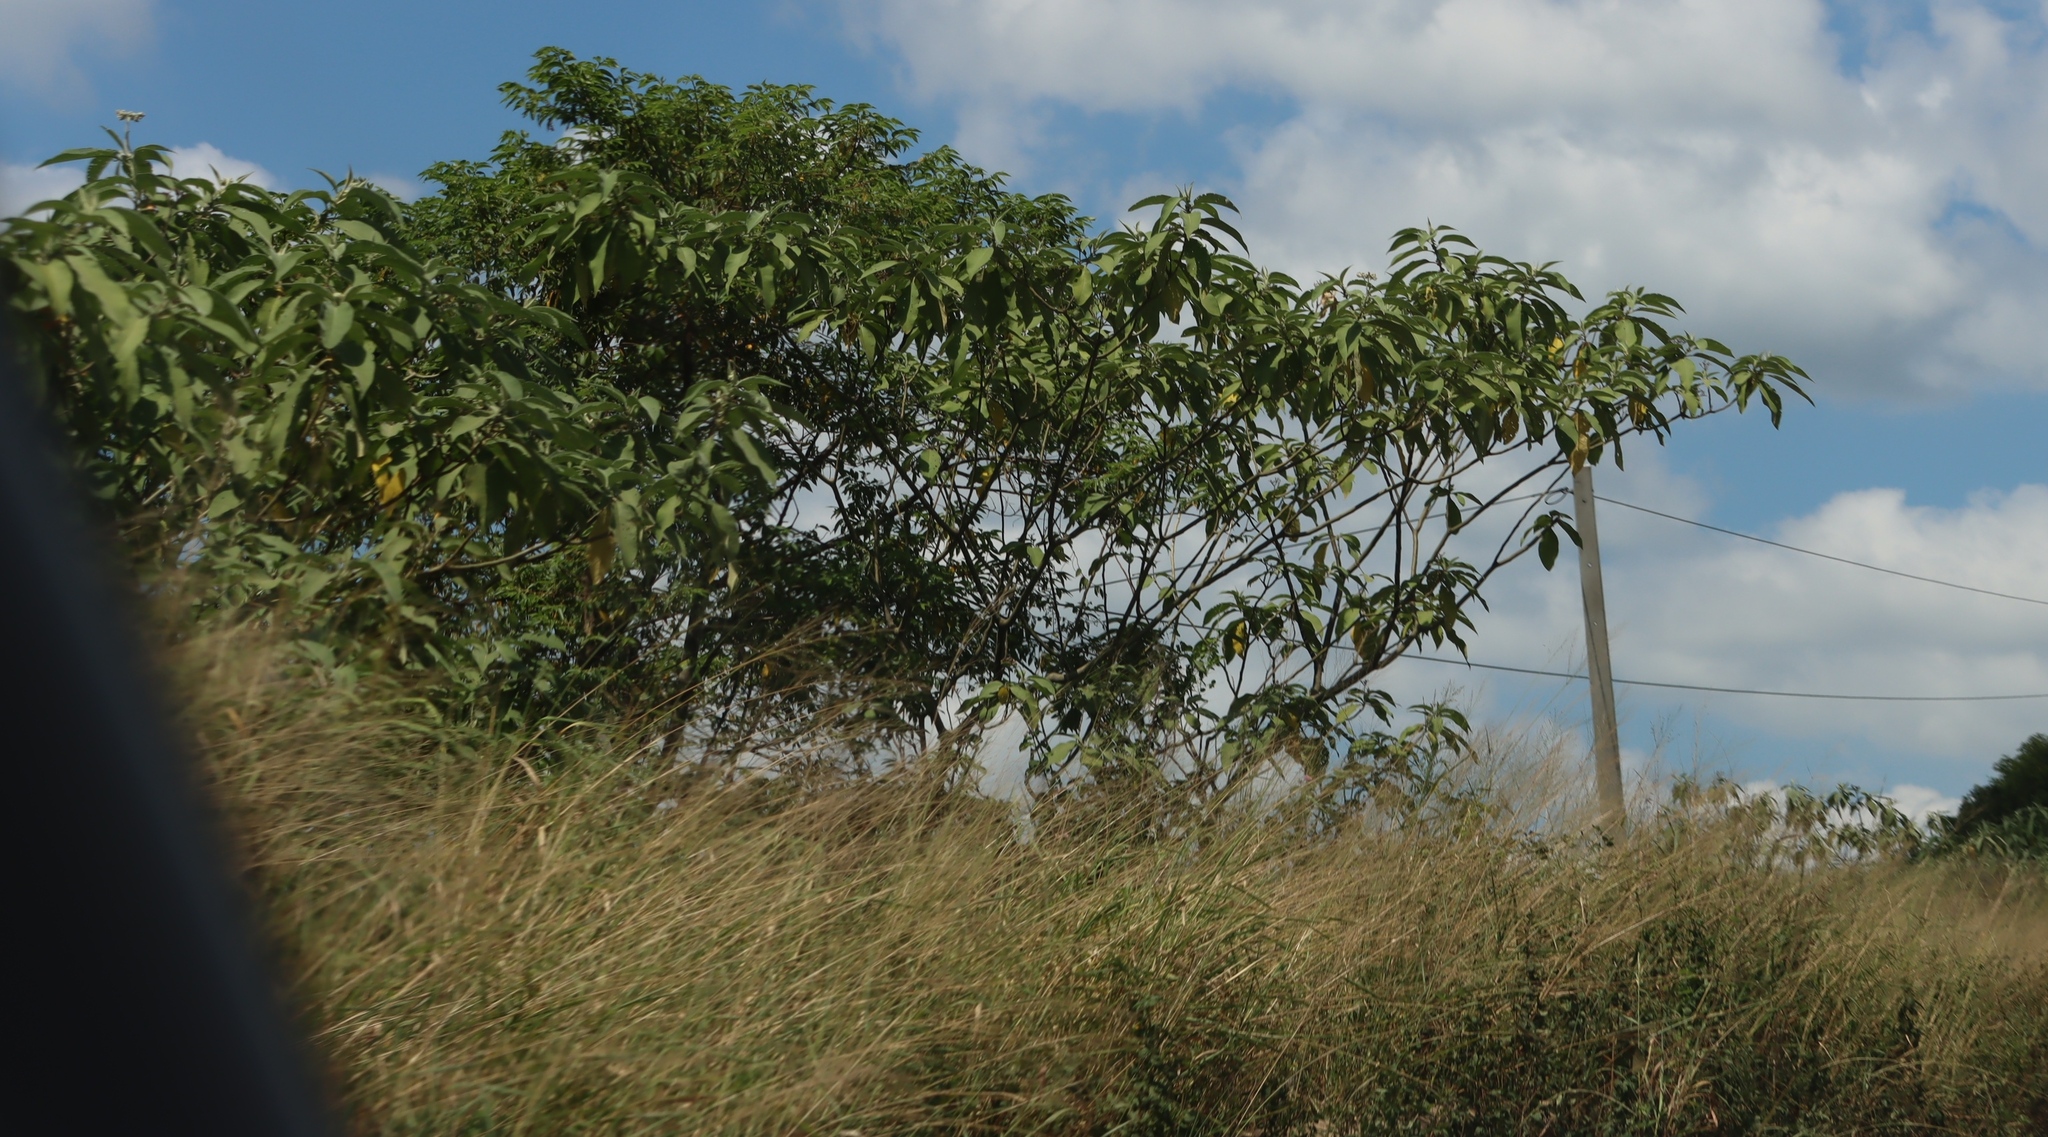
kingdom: Plantae
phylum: Tracheophyta
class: Magnoliopsida
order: Solanales
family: Solanaceae
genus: Solanum
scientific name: Solanum mauritianum
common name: Earleaf nightshade
